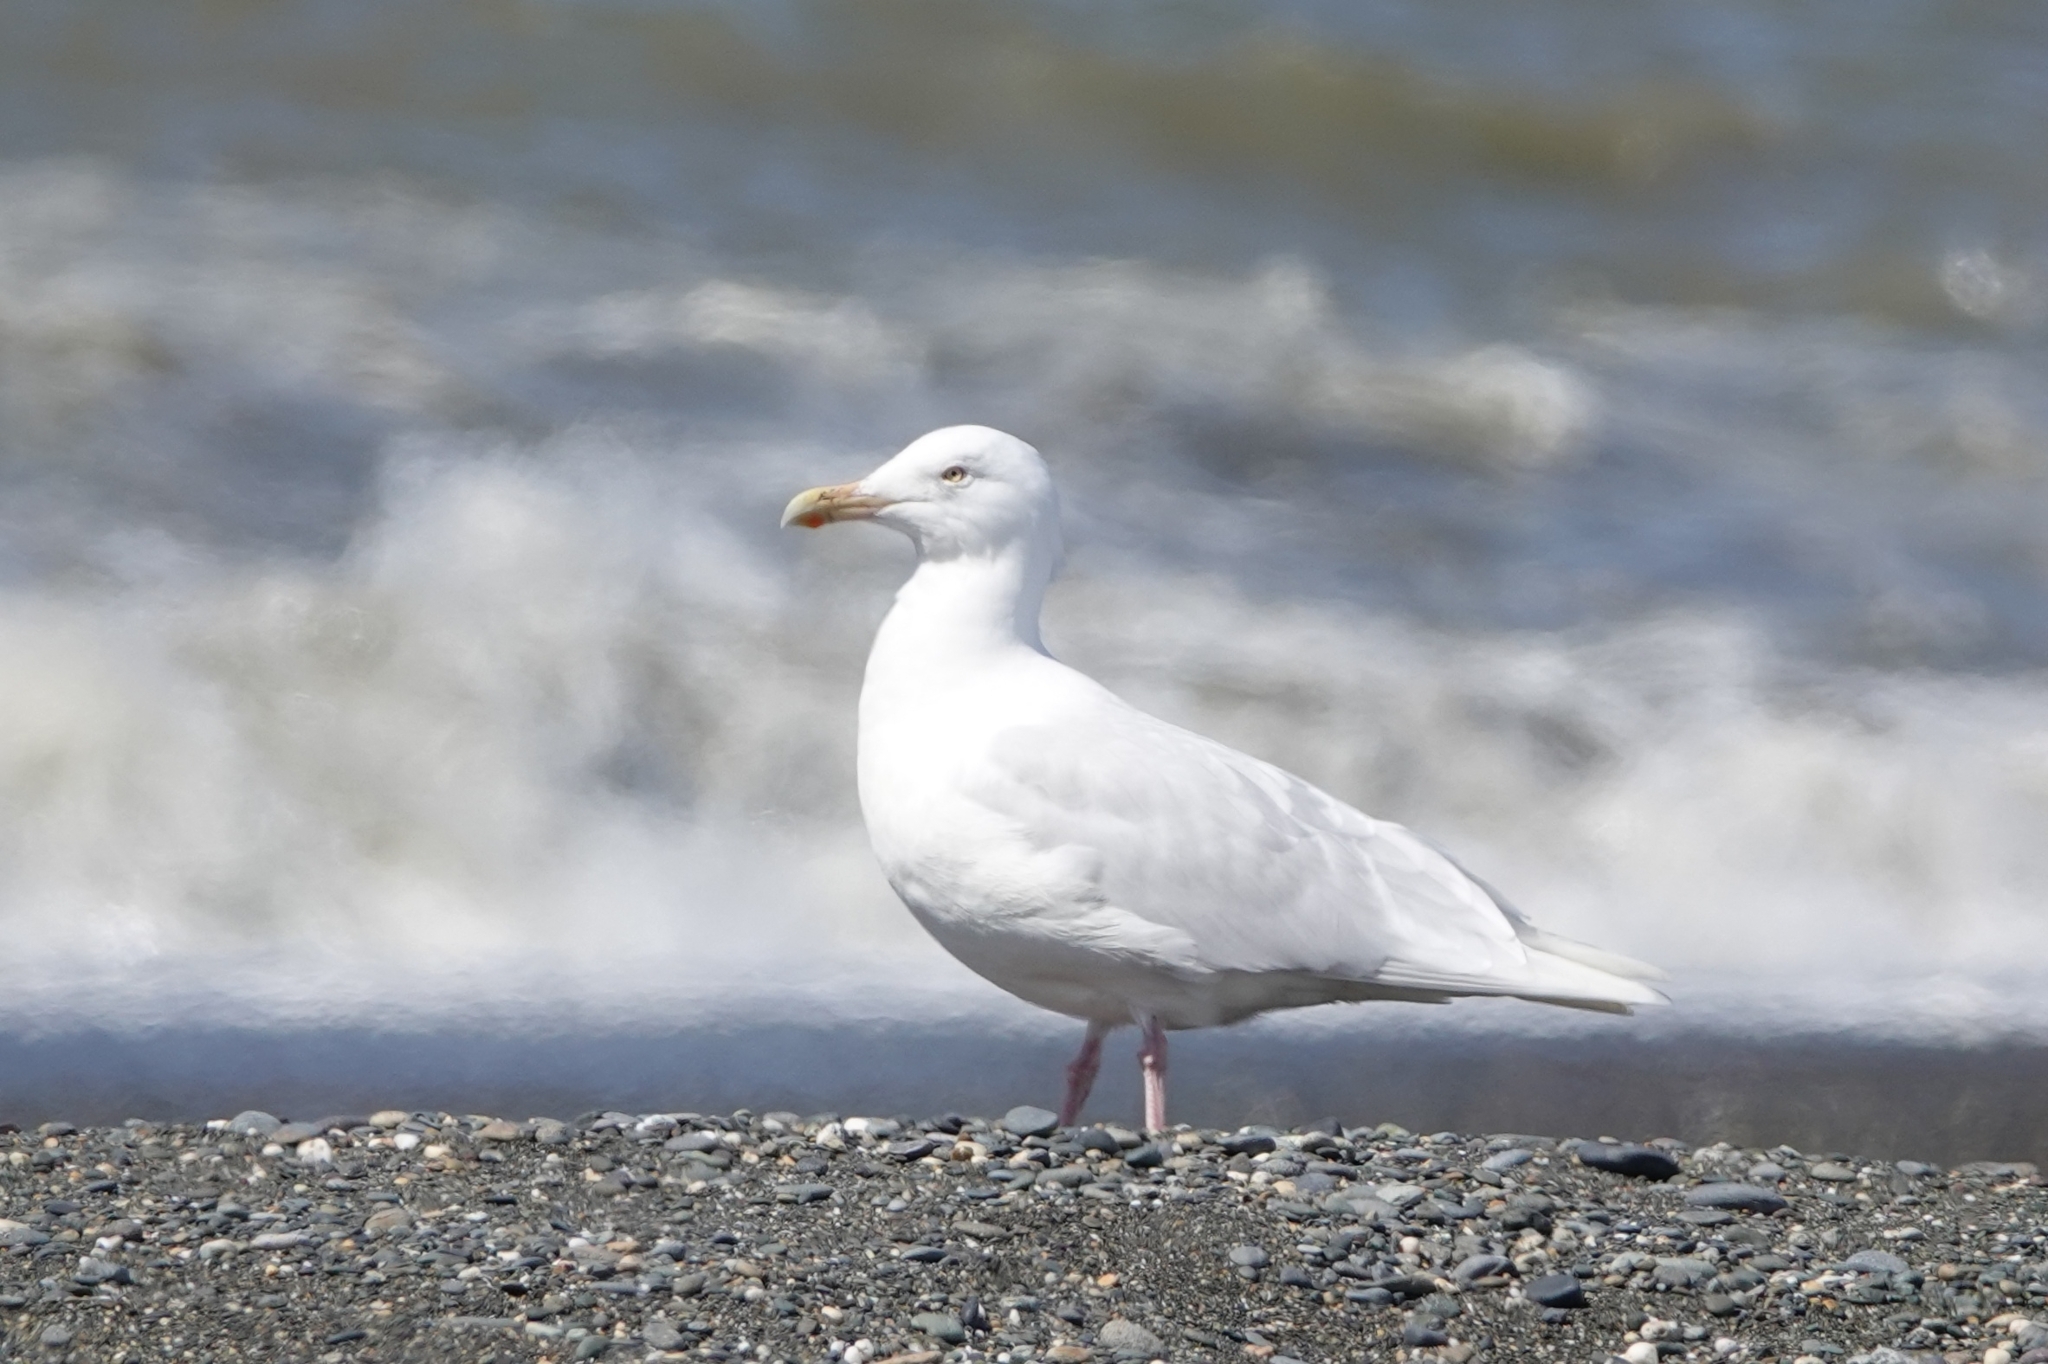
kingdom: Animalia
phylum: Chordata
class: Aves
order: Charadriiformes
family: Laridae
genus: Larus
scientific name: Larus hyperboreus
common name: Glaucous gull
